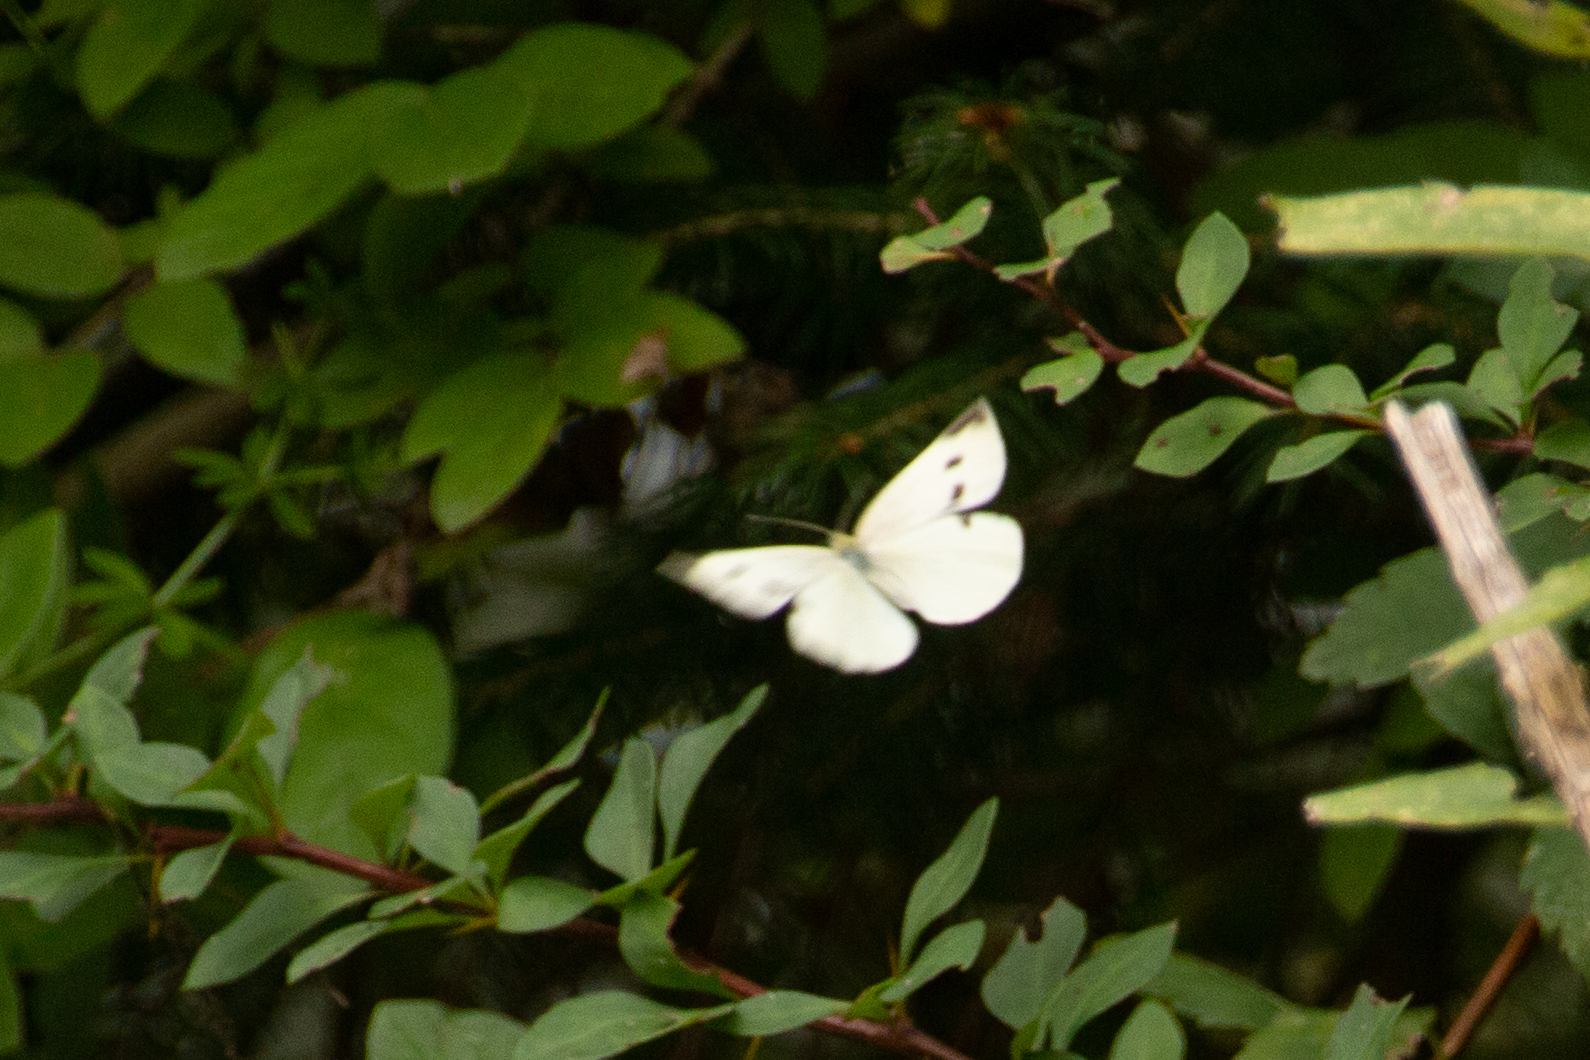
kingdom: Animalia
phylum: Arthropoda
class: Insecta
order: Lepidoptera
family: Pieridae
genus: Pieris
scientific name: Pieris rapae
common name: Small white
